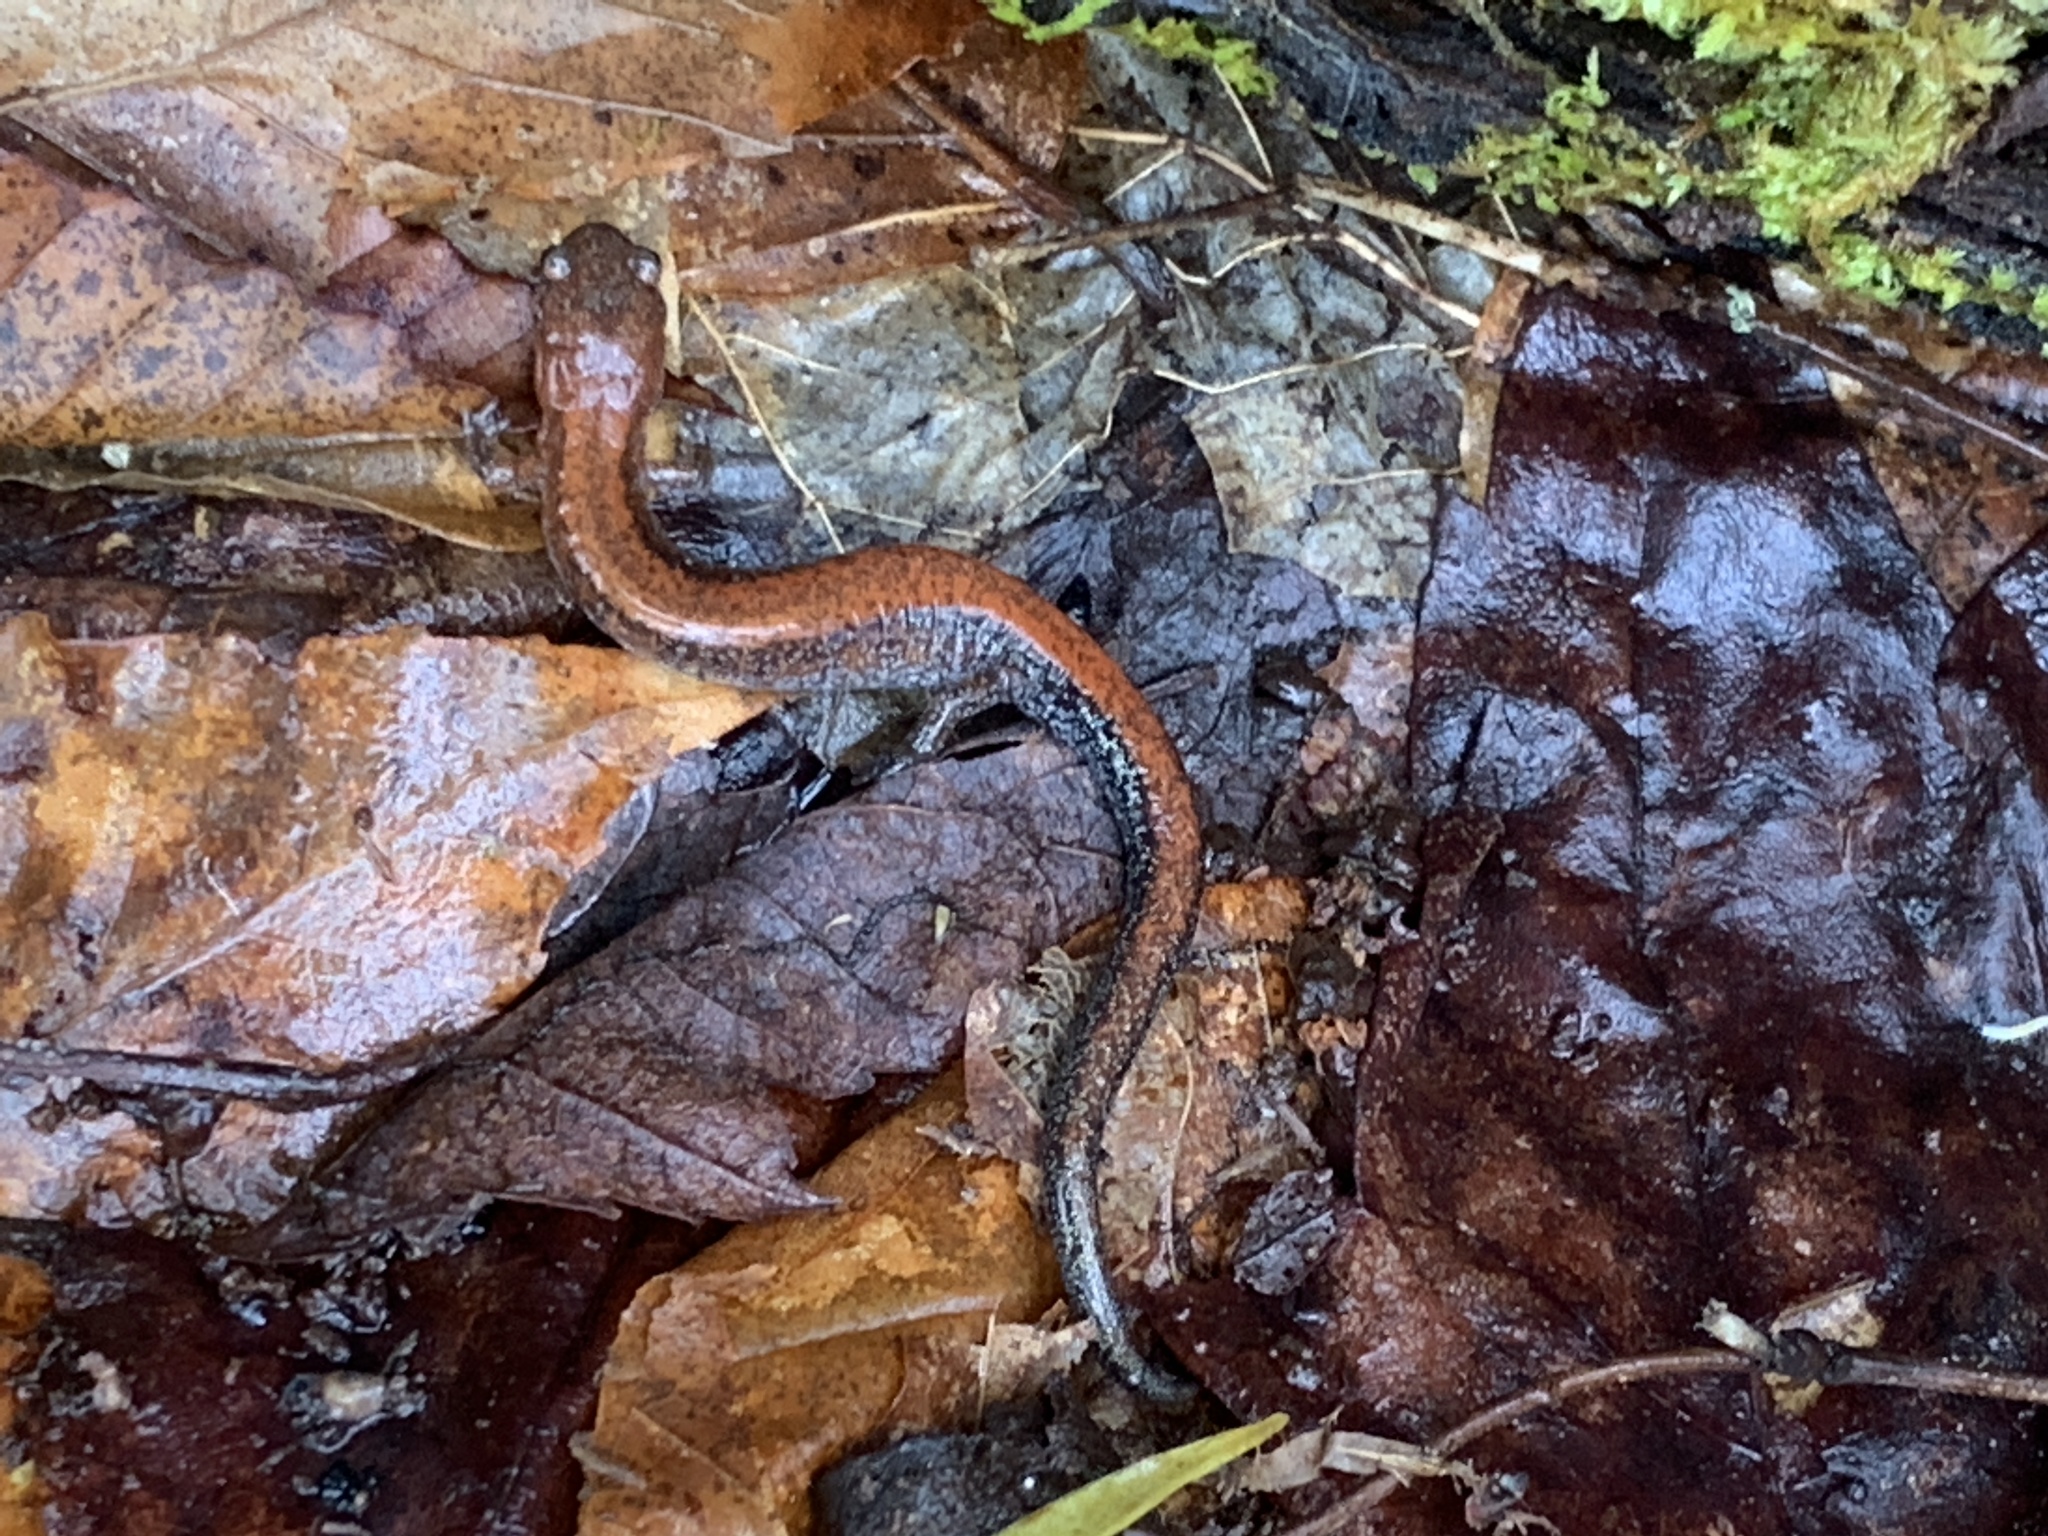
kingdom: Animalia
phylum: Chordata
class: Amphibia
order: Caudata
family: Plethodontidae
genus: Plethodon
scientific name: Plethodon cinereus
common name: Redback salamander
